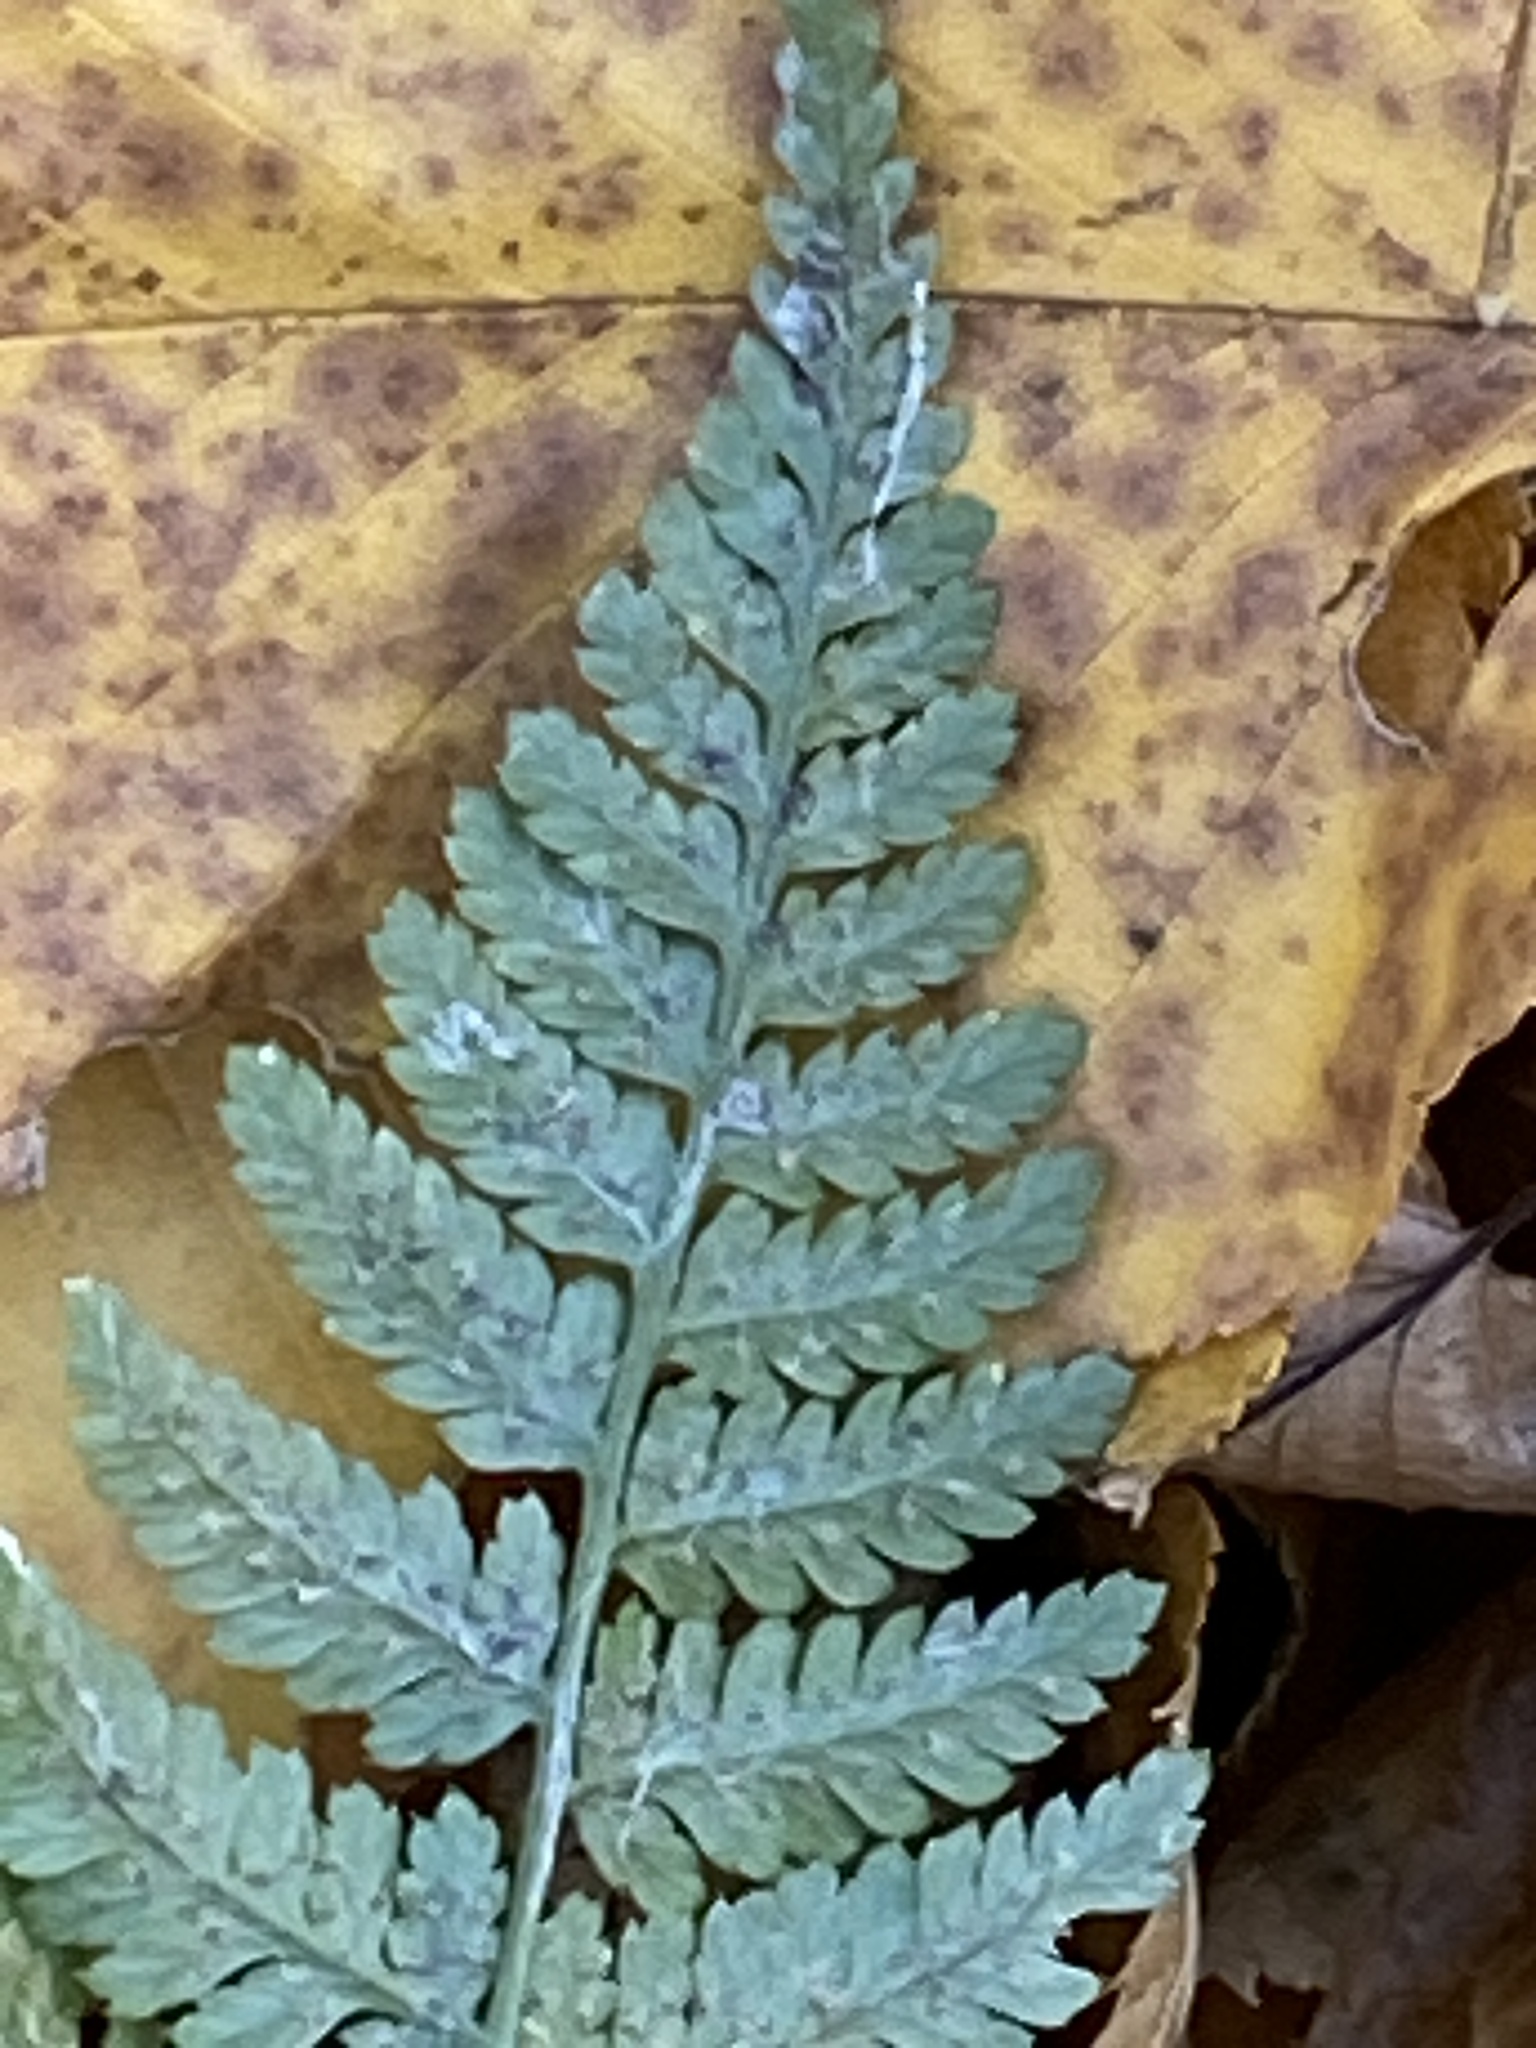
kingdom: Plantae
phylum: Tracheophyta
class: Polypodiopsida
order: Polypodiales
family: Dryopteridaceae
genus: Dryopteris
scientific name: Dryopteris intermedia
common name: Evergreen wood fern
